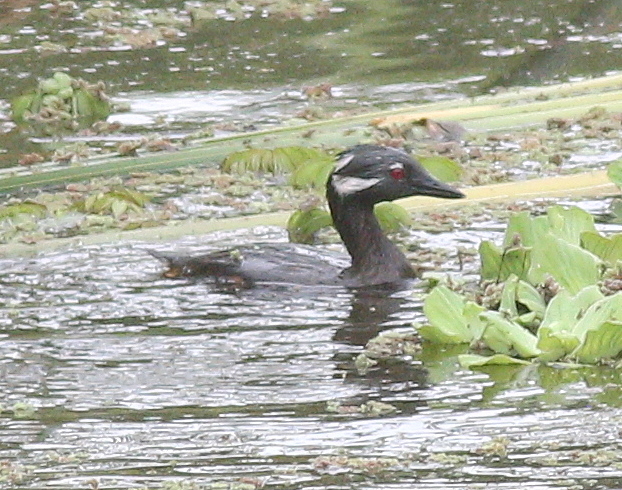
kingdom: Animalia
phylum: Chordata
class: Aves
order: Podicipediformes
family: Podicipedidae
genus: Rollandia
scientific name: Rollandia rolland
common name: White-tufted grebe
